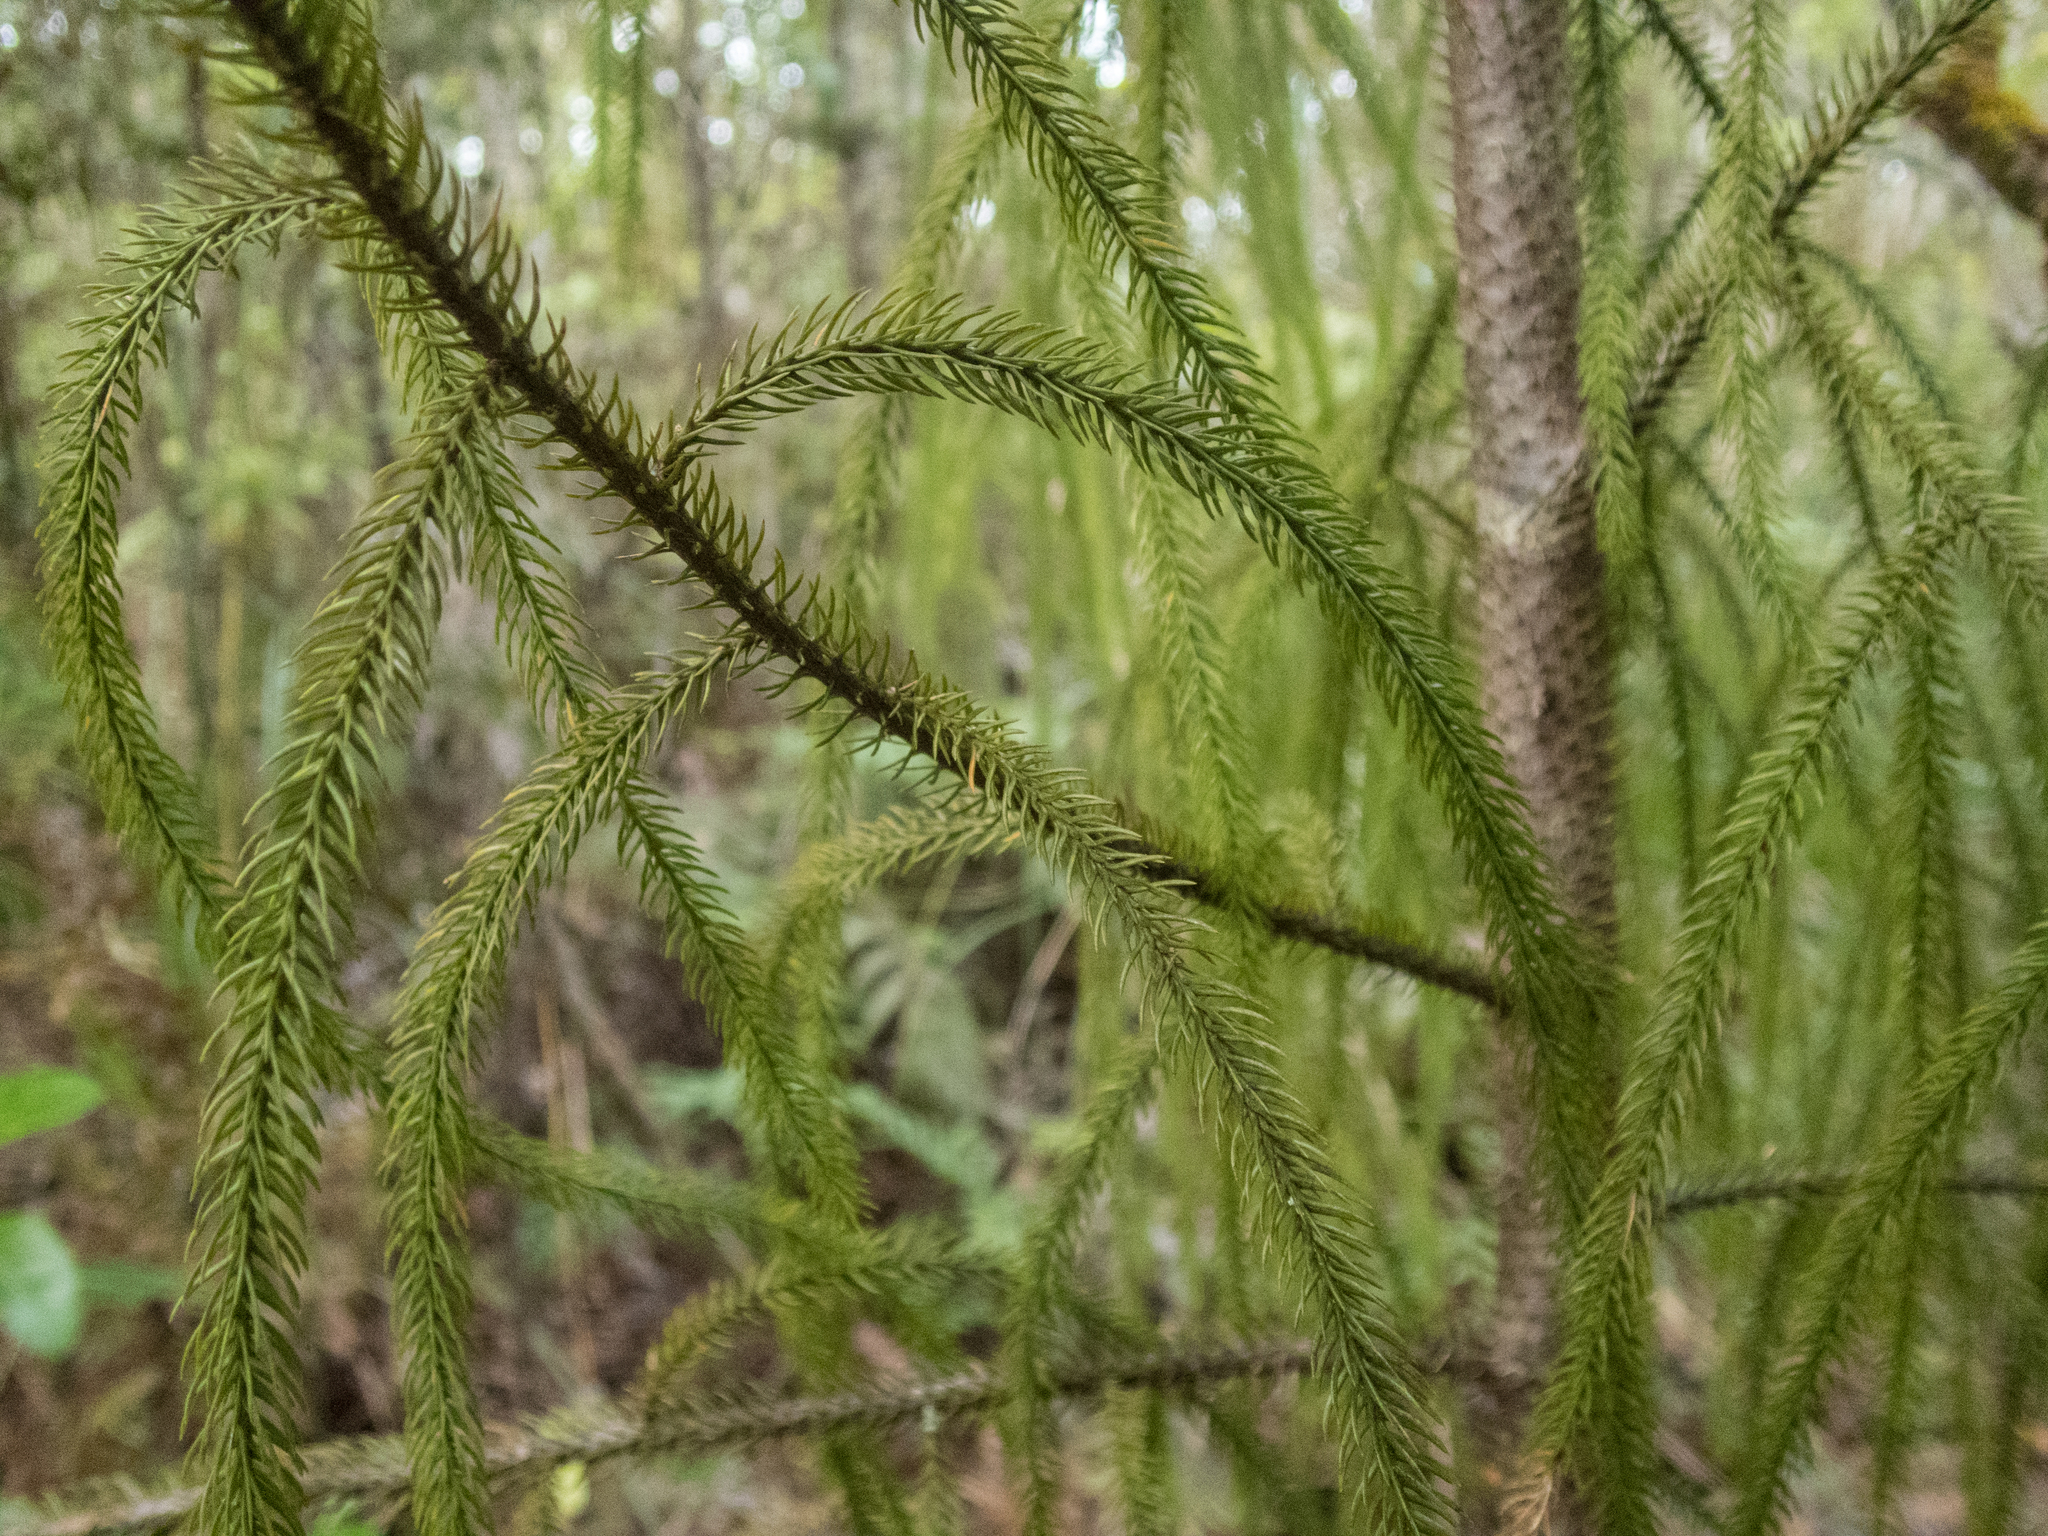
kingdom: Plantae
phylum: Tracheophyta
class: Pinopsida
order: Pinales
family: Podocarpaceae
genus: Dacrydium
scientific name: Dacrydium cupressinum
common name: Red pine
